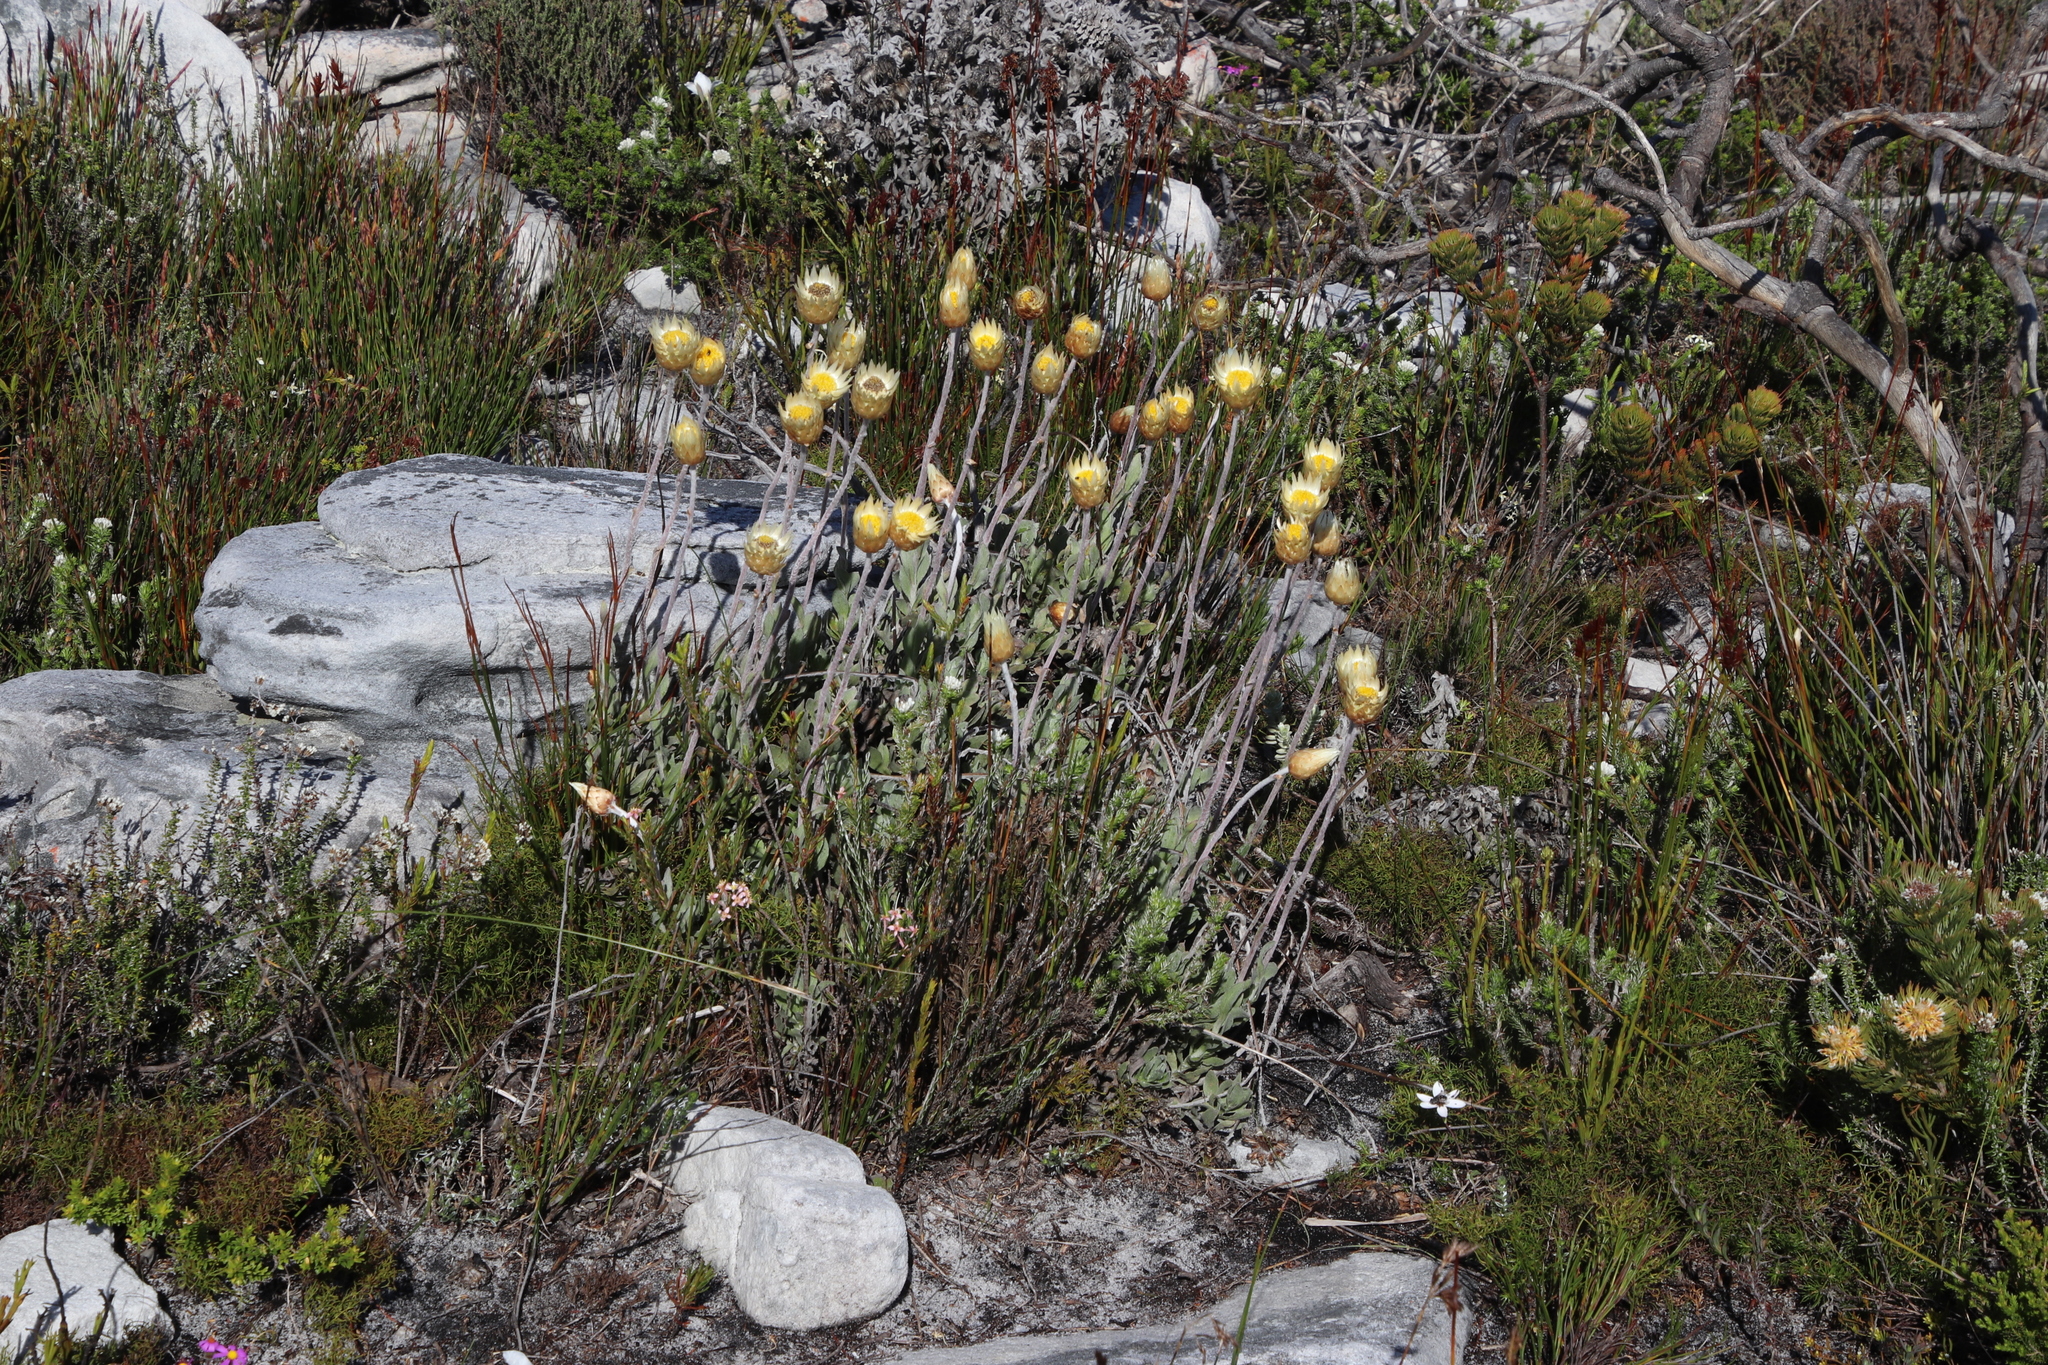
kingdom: Plantae
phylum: Tracheophyta
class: Magnoliopsida
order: Asterales
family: Asteraceae
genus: Syncarpha
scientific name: Syncarpha speciosissima
